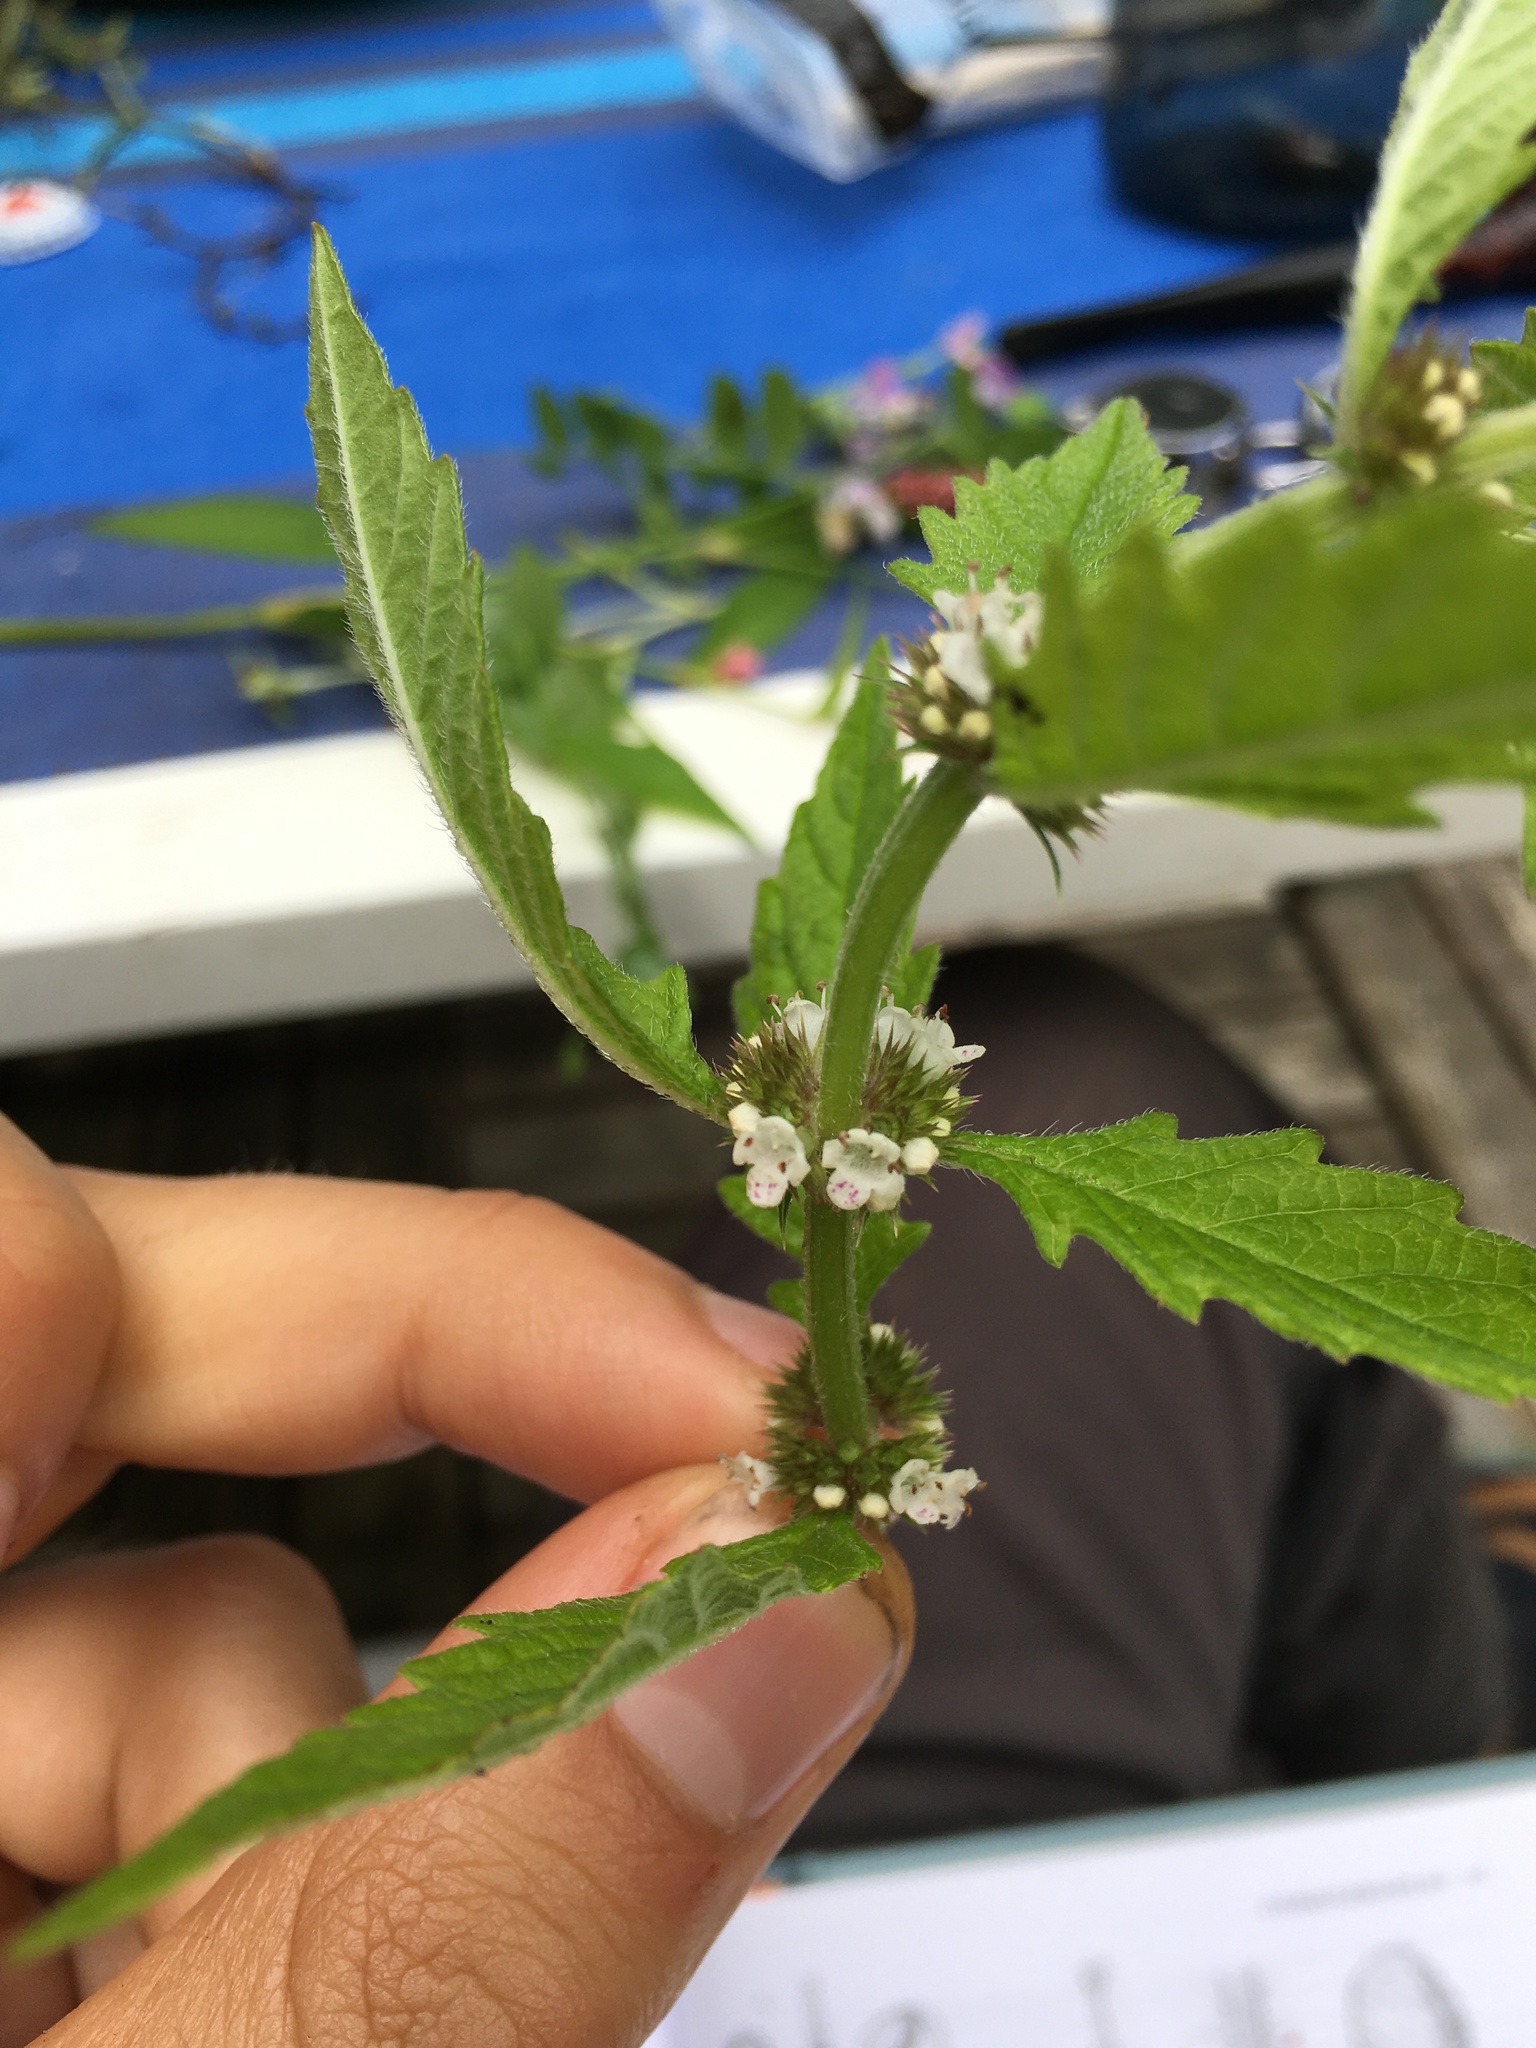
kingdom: Plantae
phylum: Tracheophyta
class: Magnoliopsida
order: Lamiales
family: Lamiaceae
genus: Lycopus
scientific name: Lycopus europaeus
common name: European bugleweed
